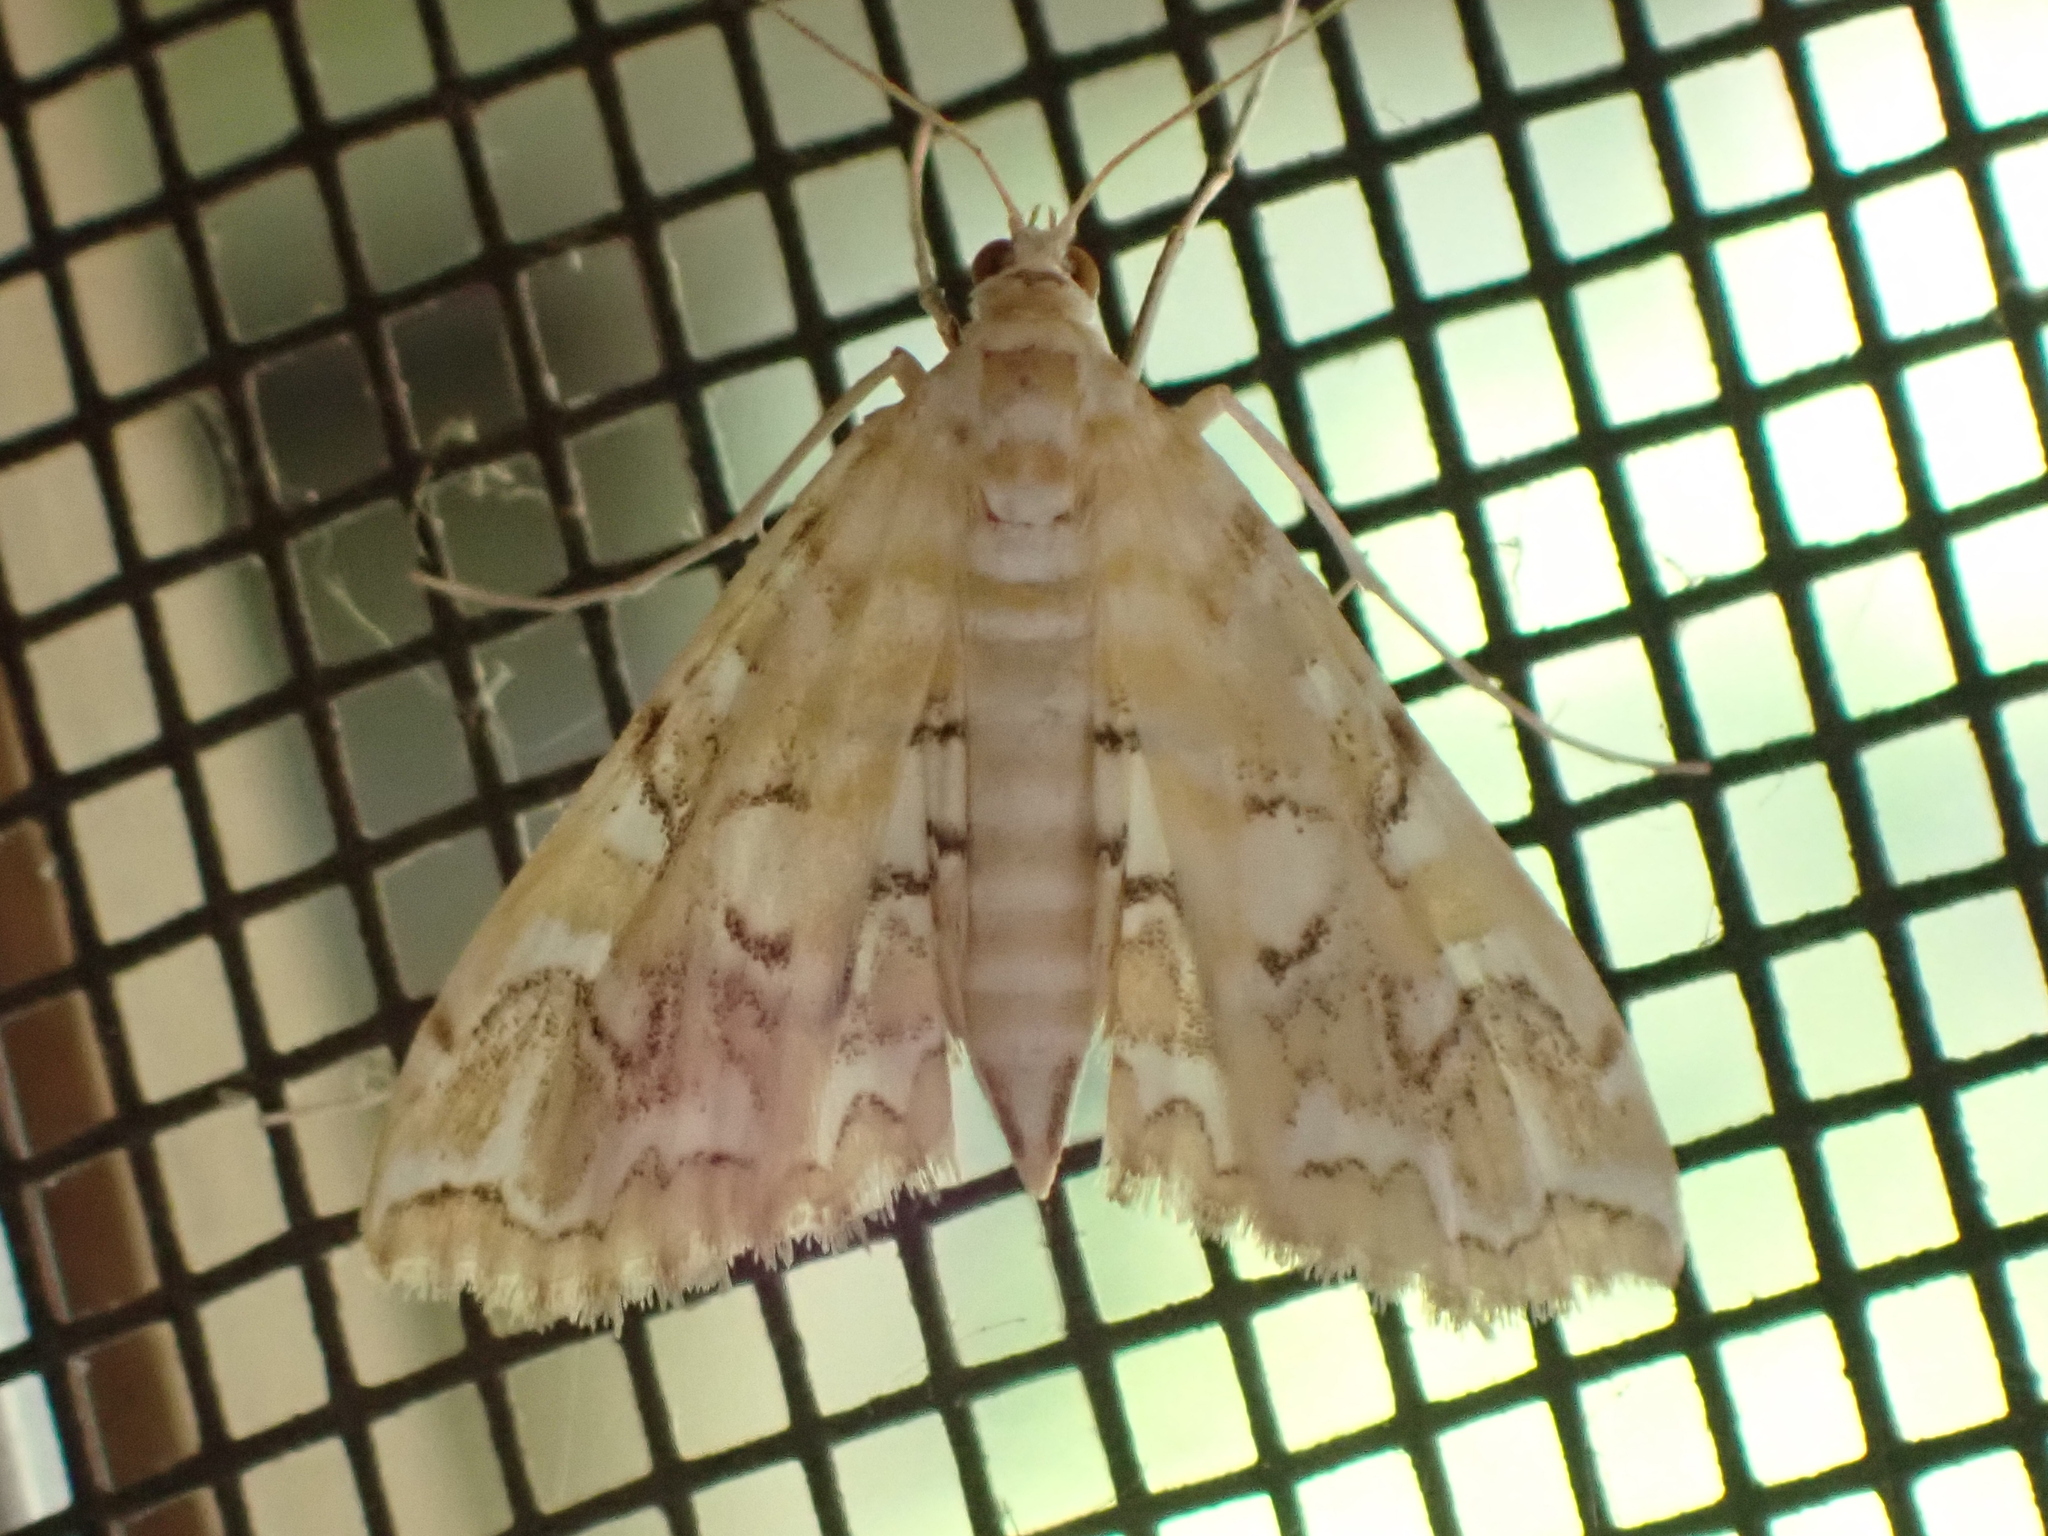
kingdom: Animalia
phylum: Arthropoda
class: Insecta
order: Lepidoptera
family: Crambidae
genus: Elophila
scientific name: Elophila icciusalis
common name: Pondside pyralid moth
